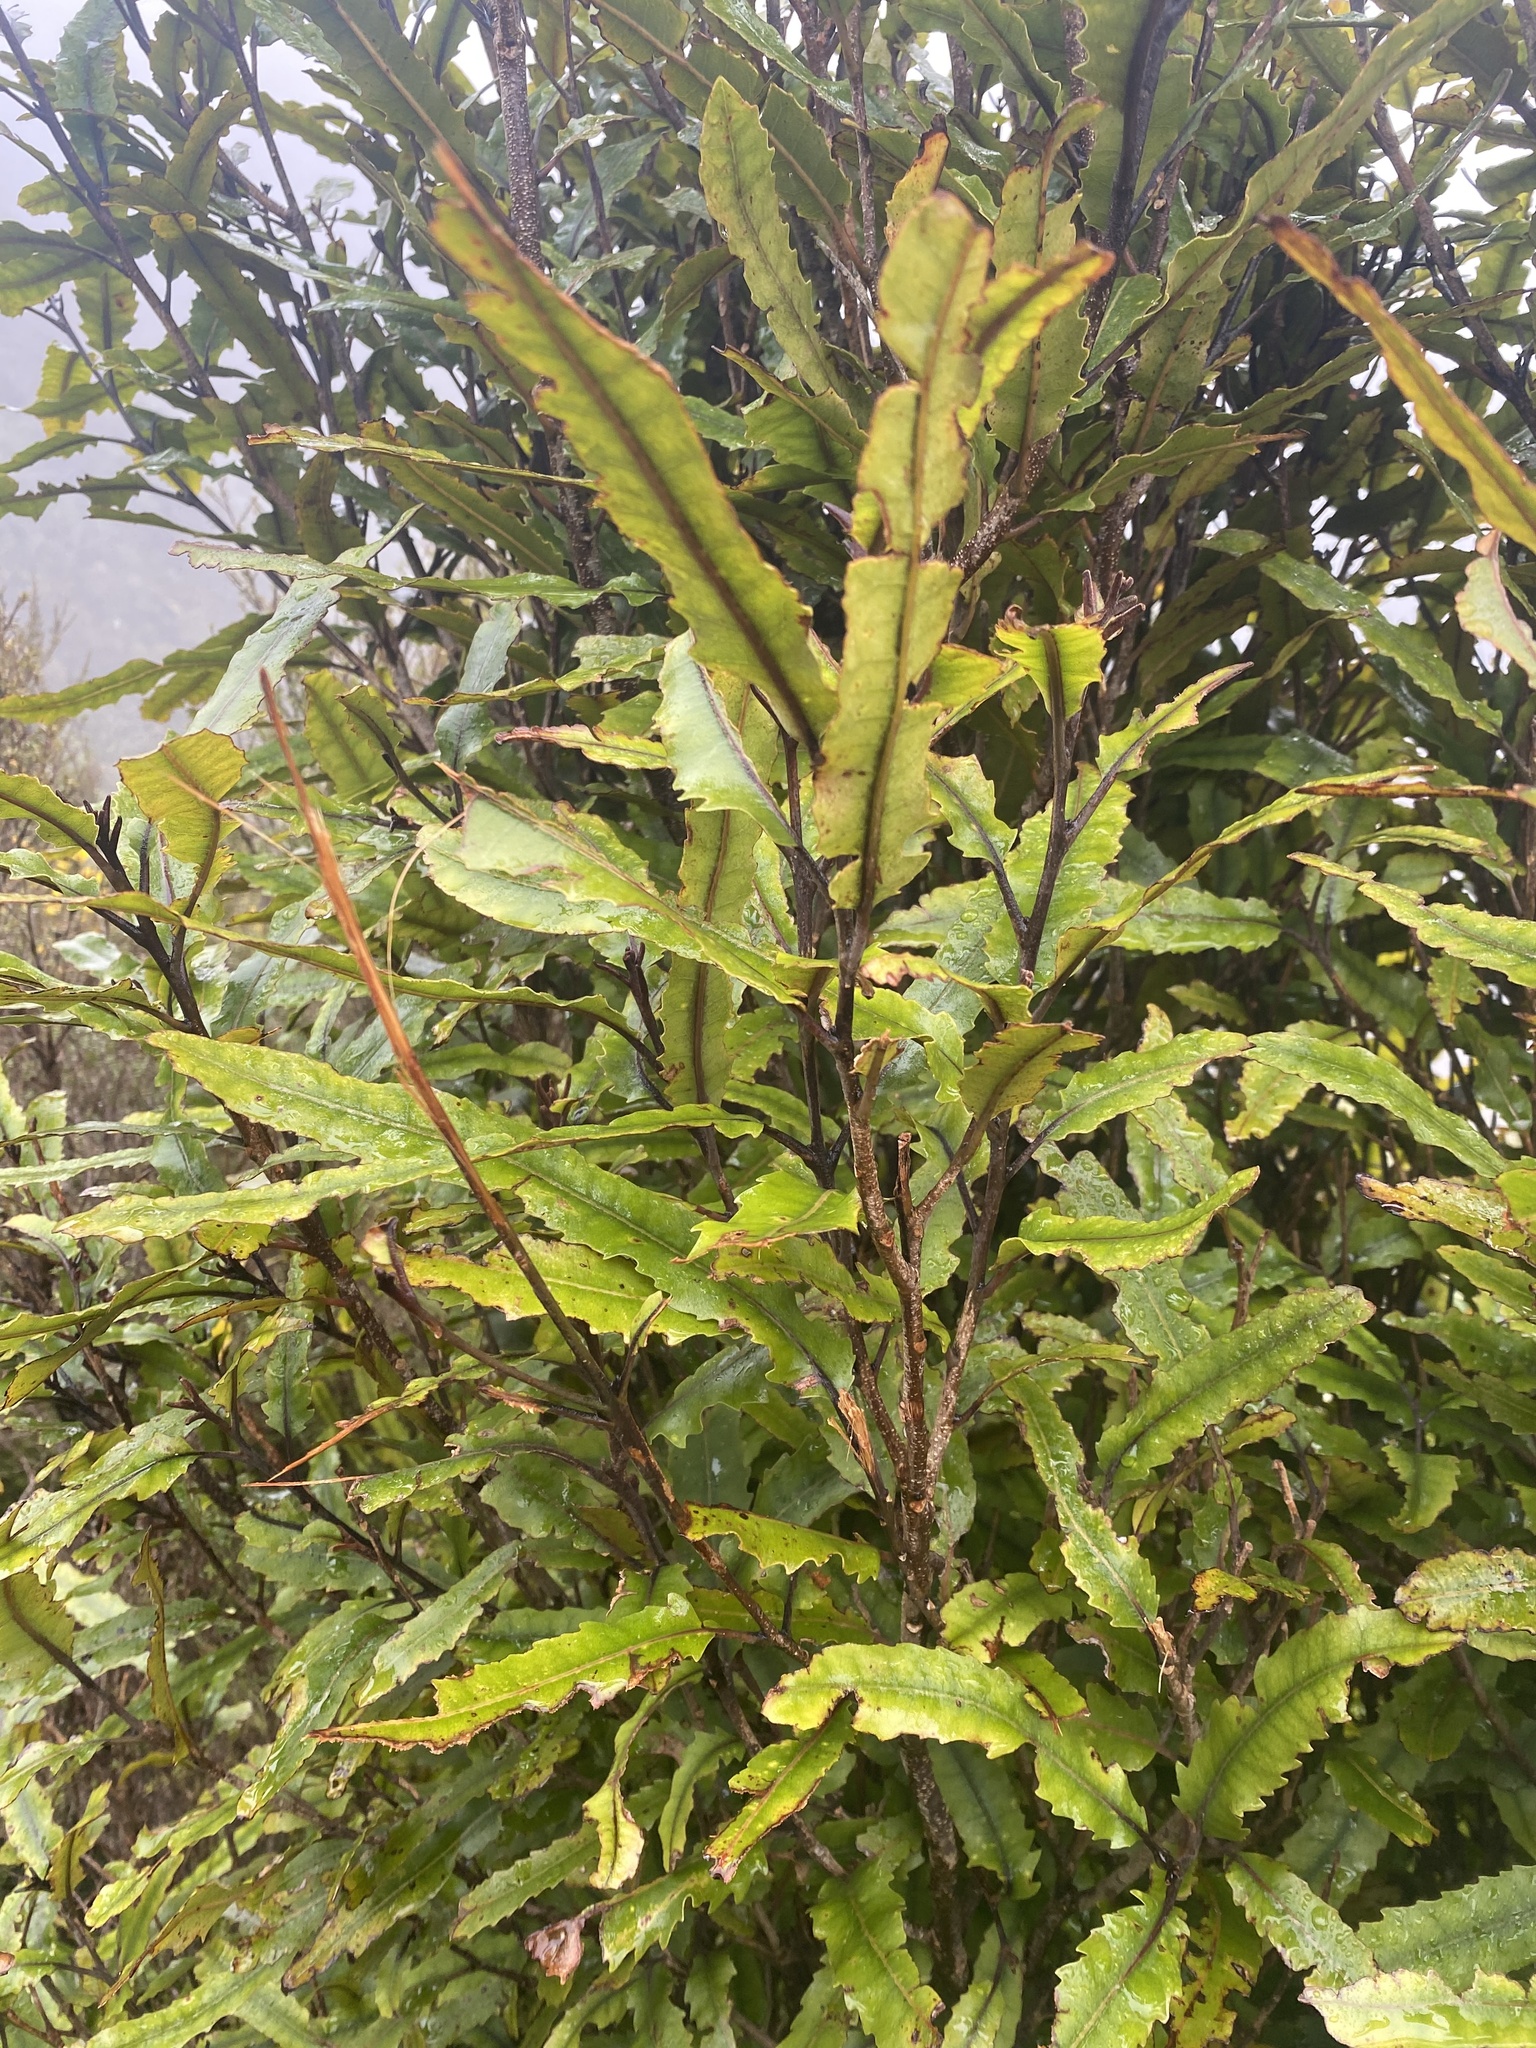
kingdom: Plantae
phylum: Tracheophyta
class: Magnoliopsida
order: Proteales
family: Proteaceae
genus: Knightia
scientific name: Knightia excelsa
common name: New zealand-honeysuckle
